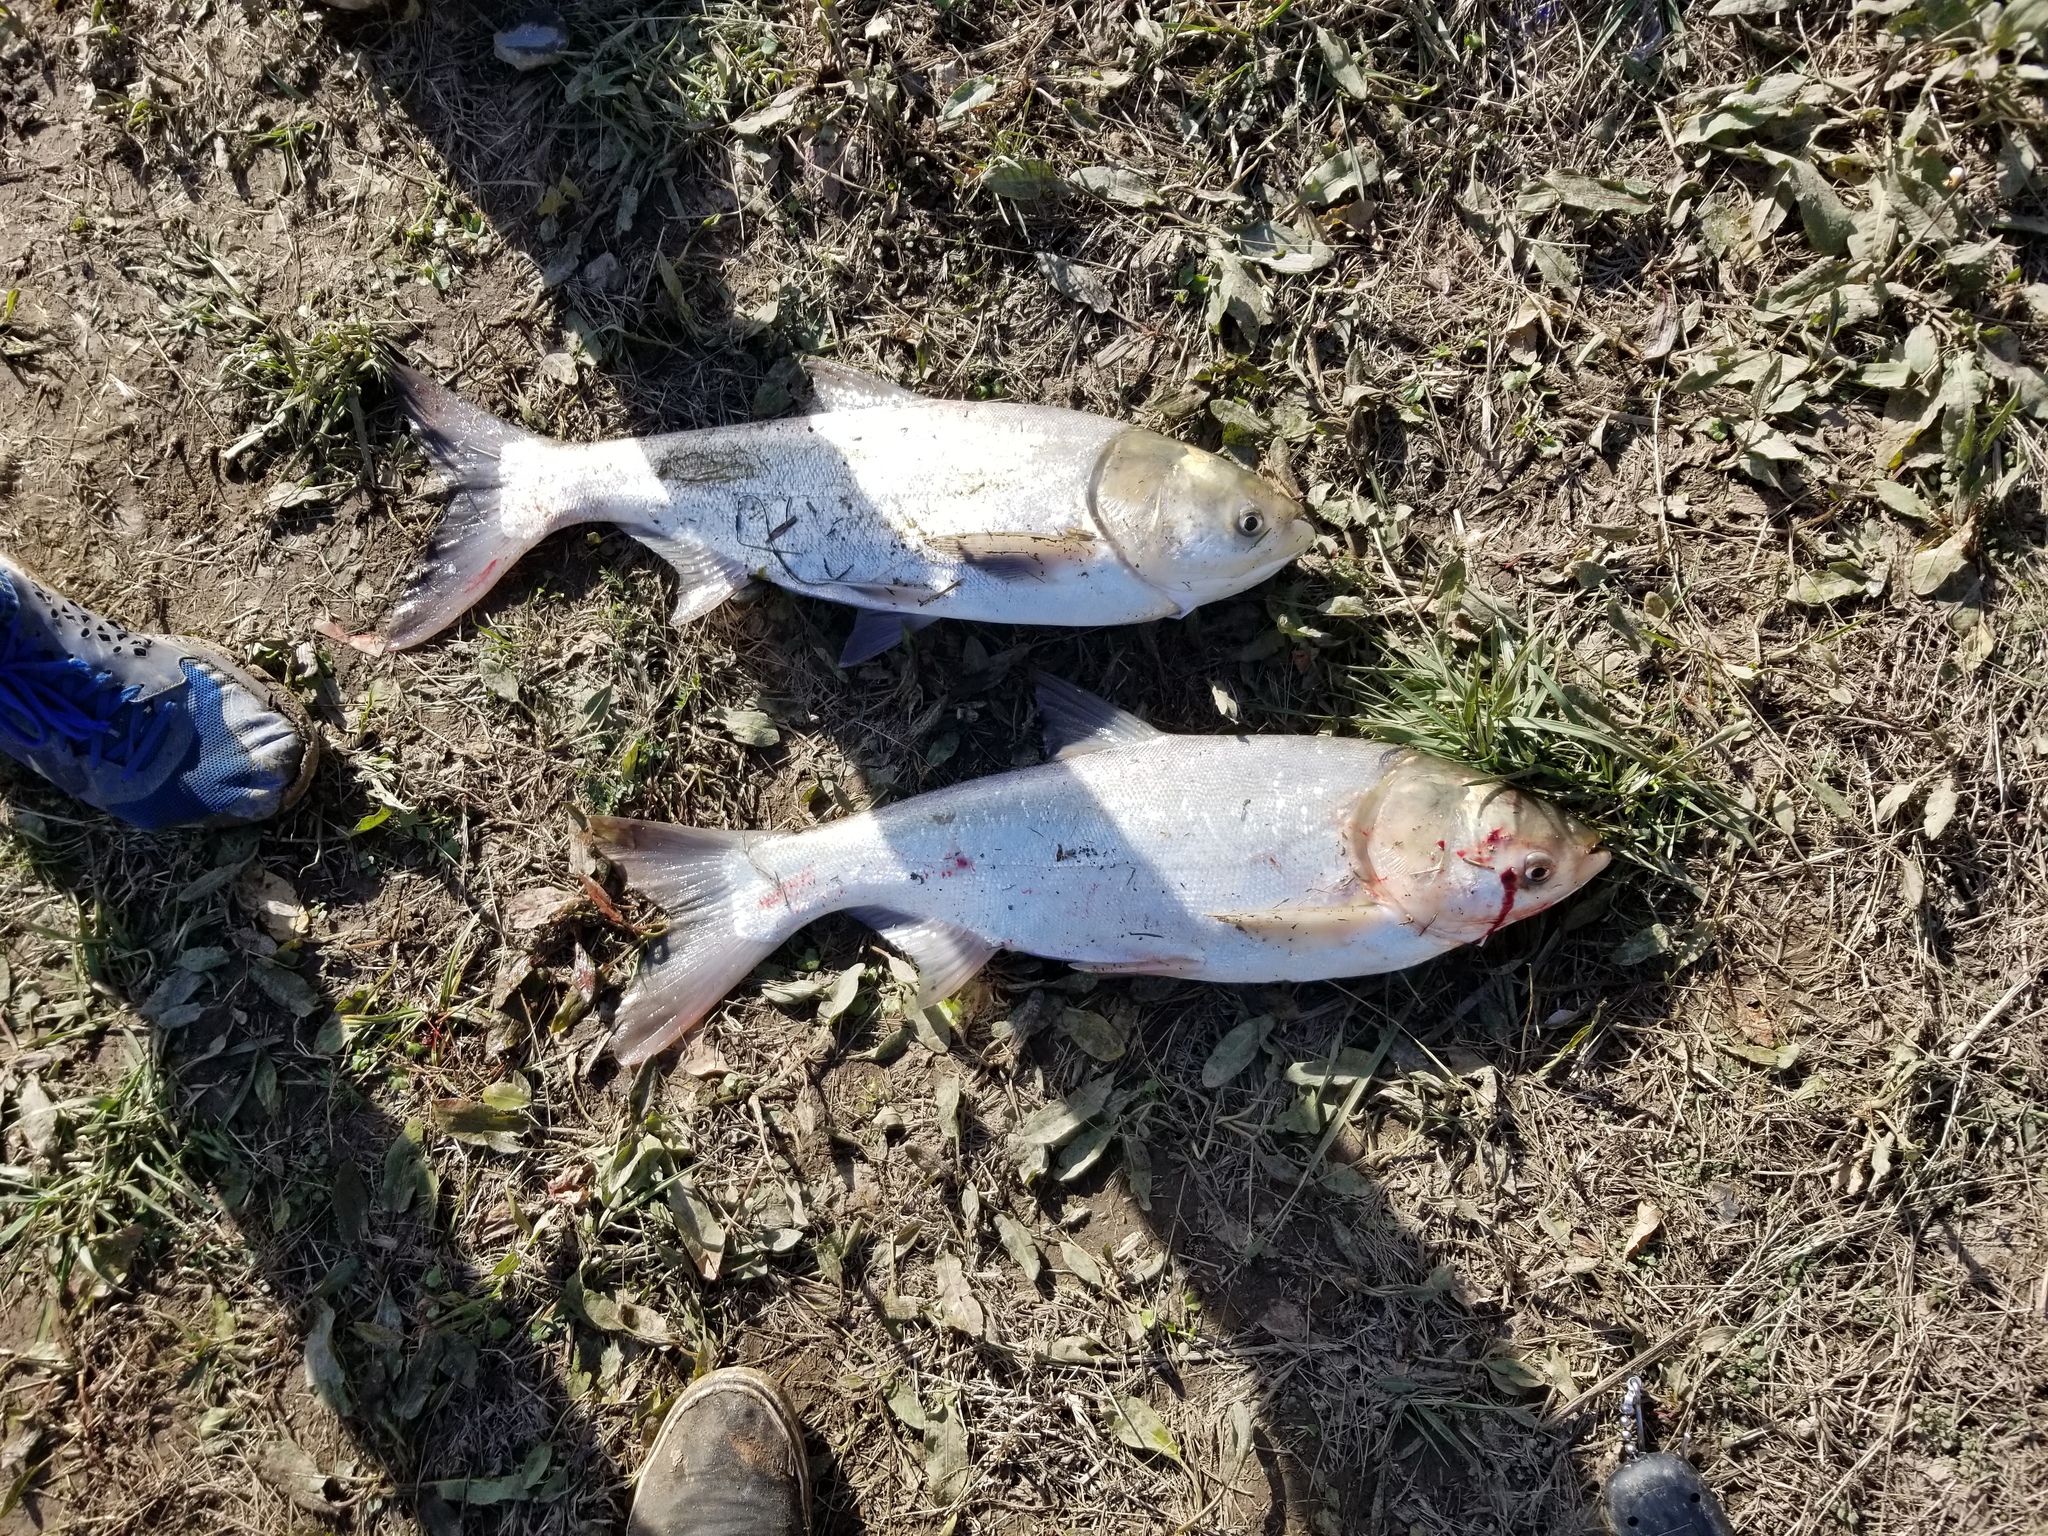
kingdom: Animalia
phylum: Chordata
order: Cypriniformes
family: Cyprinidae
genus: Hypophthalmichthys
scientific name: Hypophthalmichthys molitrix
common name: Silver carp
